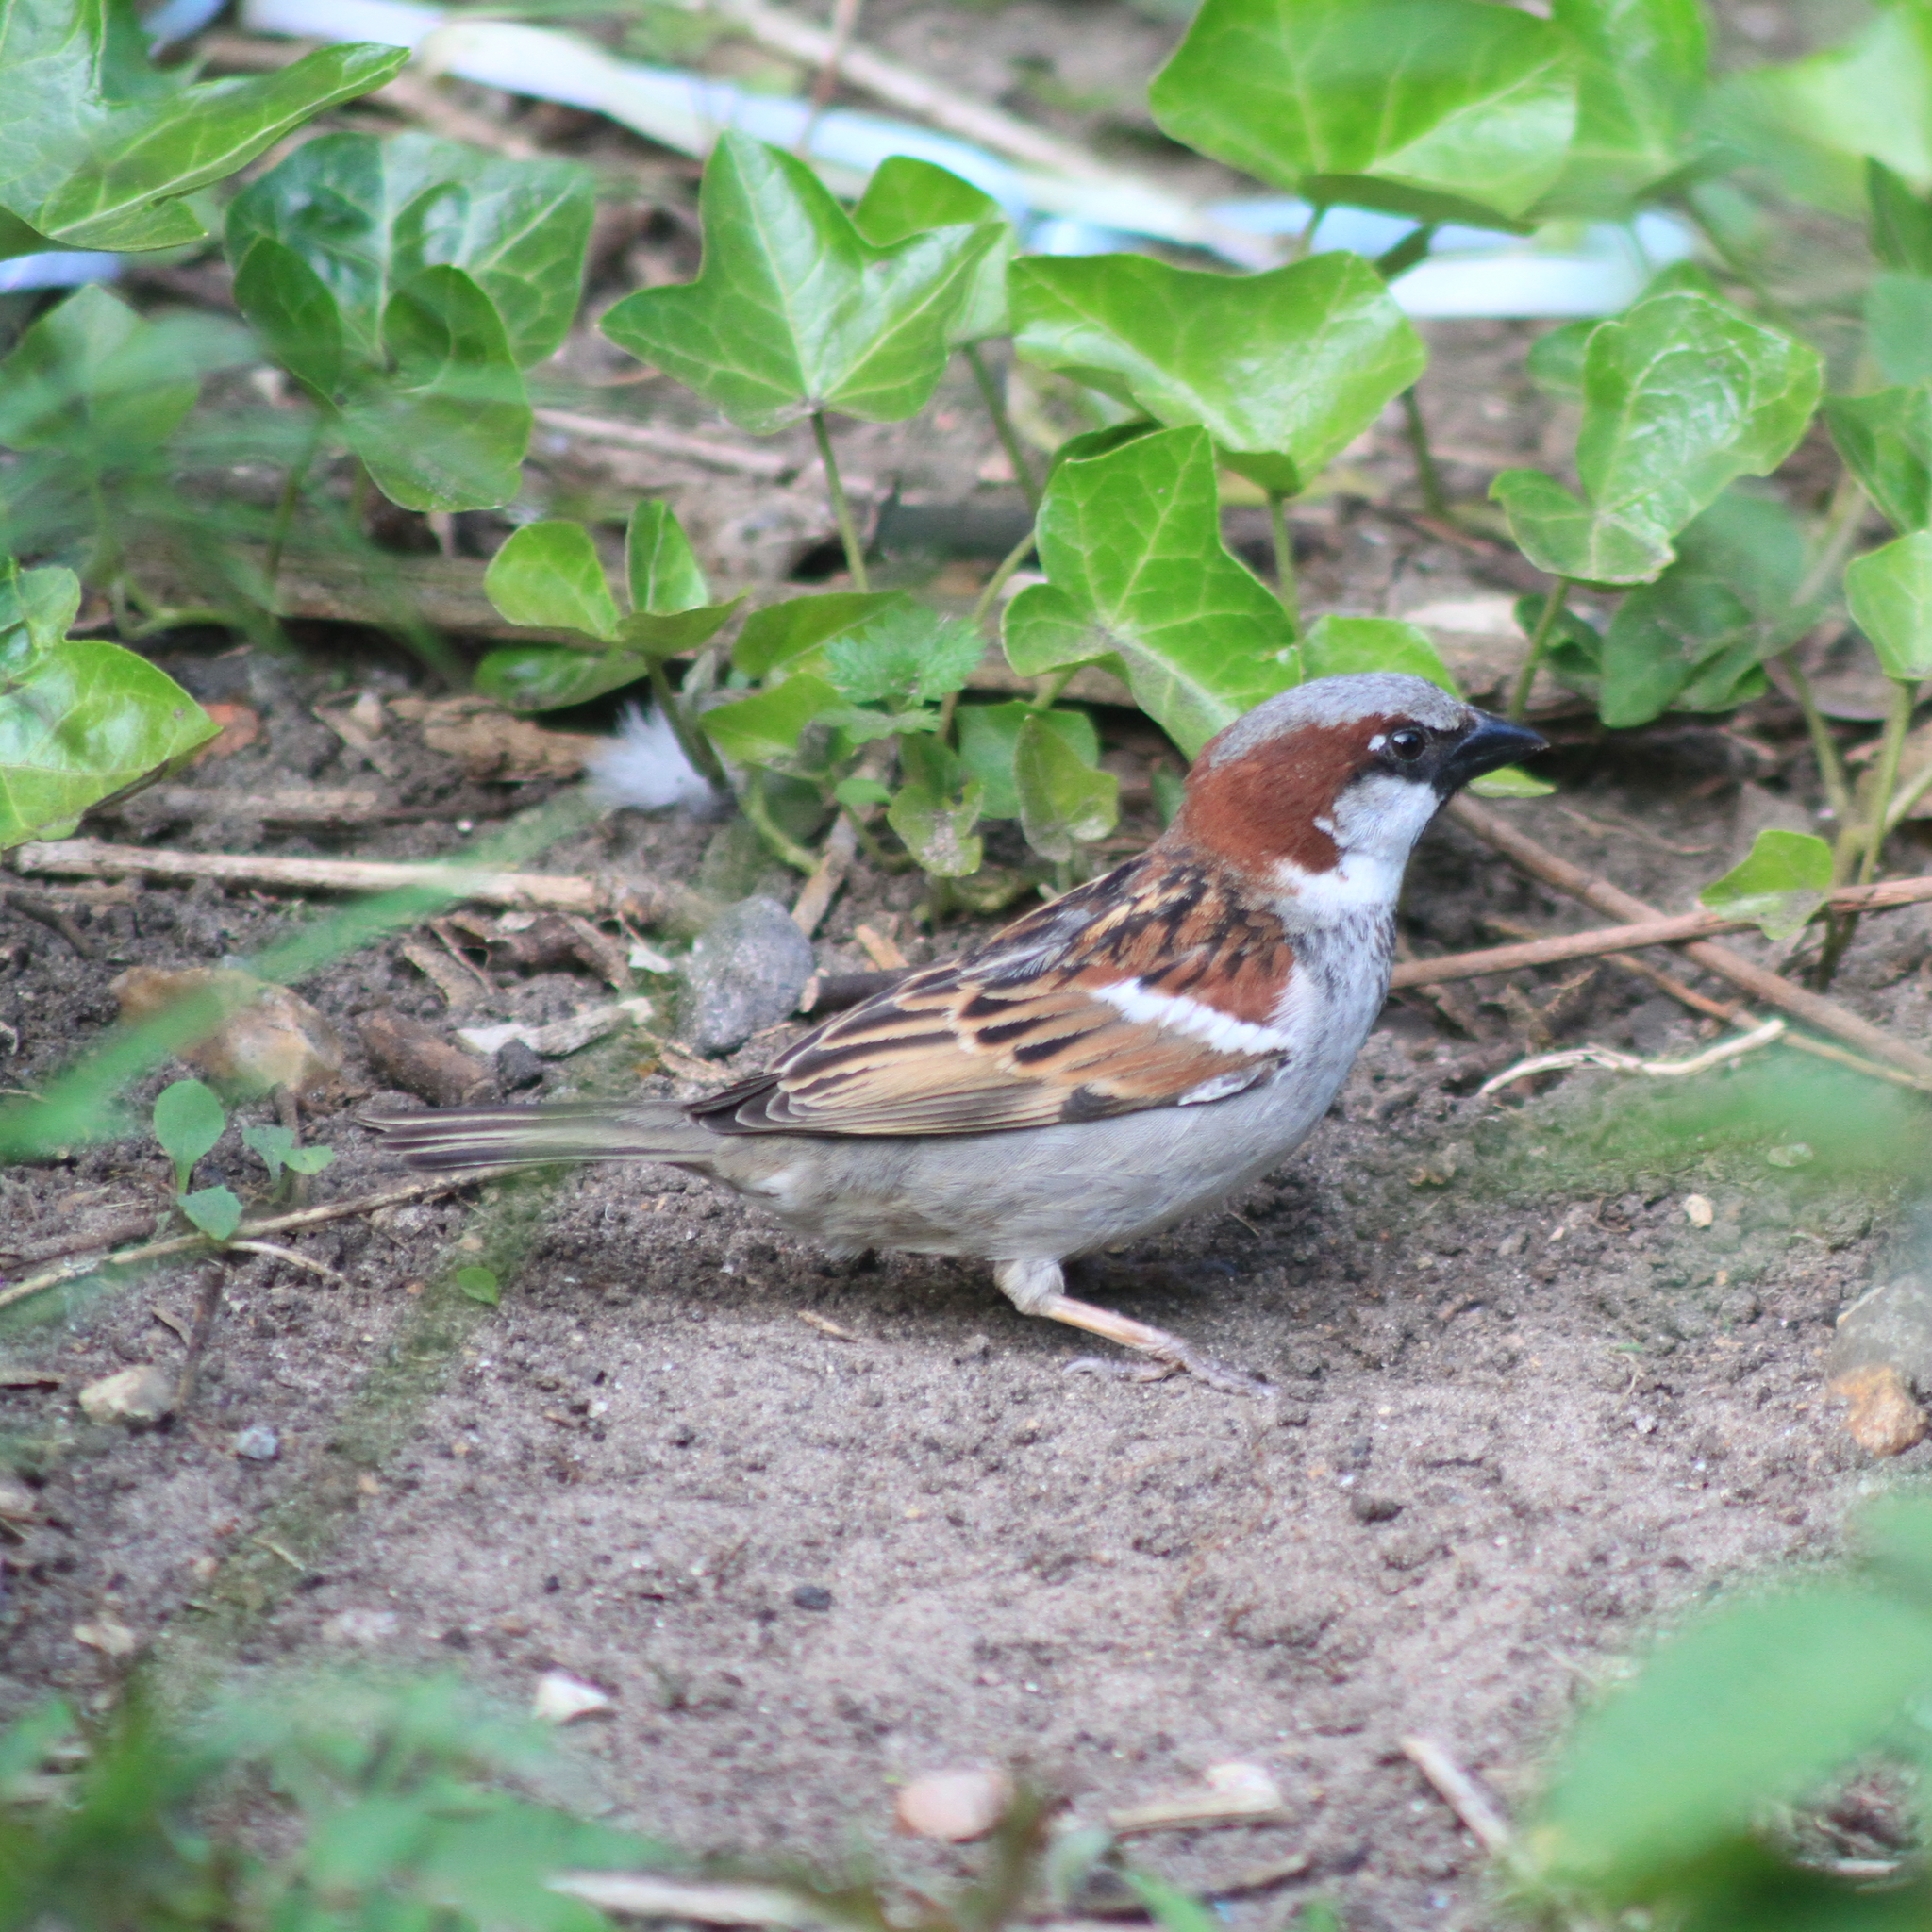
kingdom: Animalia
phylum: Chordata
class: Aves
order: Passeriformes
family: Passeridae
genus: Passer
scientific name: Passer domesticus
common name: House sparrow
